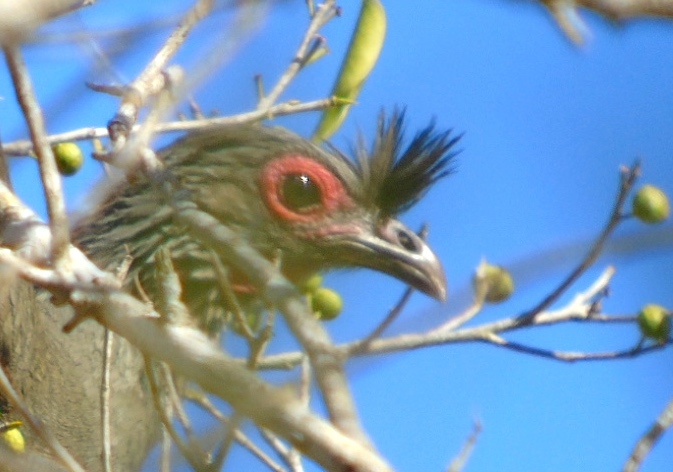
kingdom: Animalia
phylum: Chordata
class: Aves
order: Galliformes
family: Cracidae
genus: Ortalis
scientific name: Ortalis wagleri
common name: Rufous-bellied chachalaca
